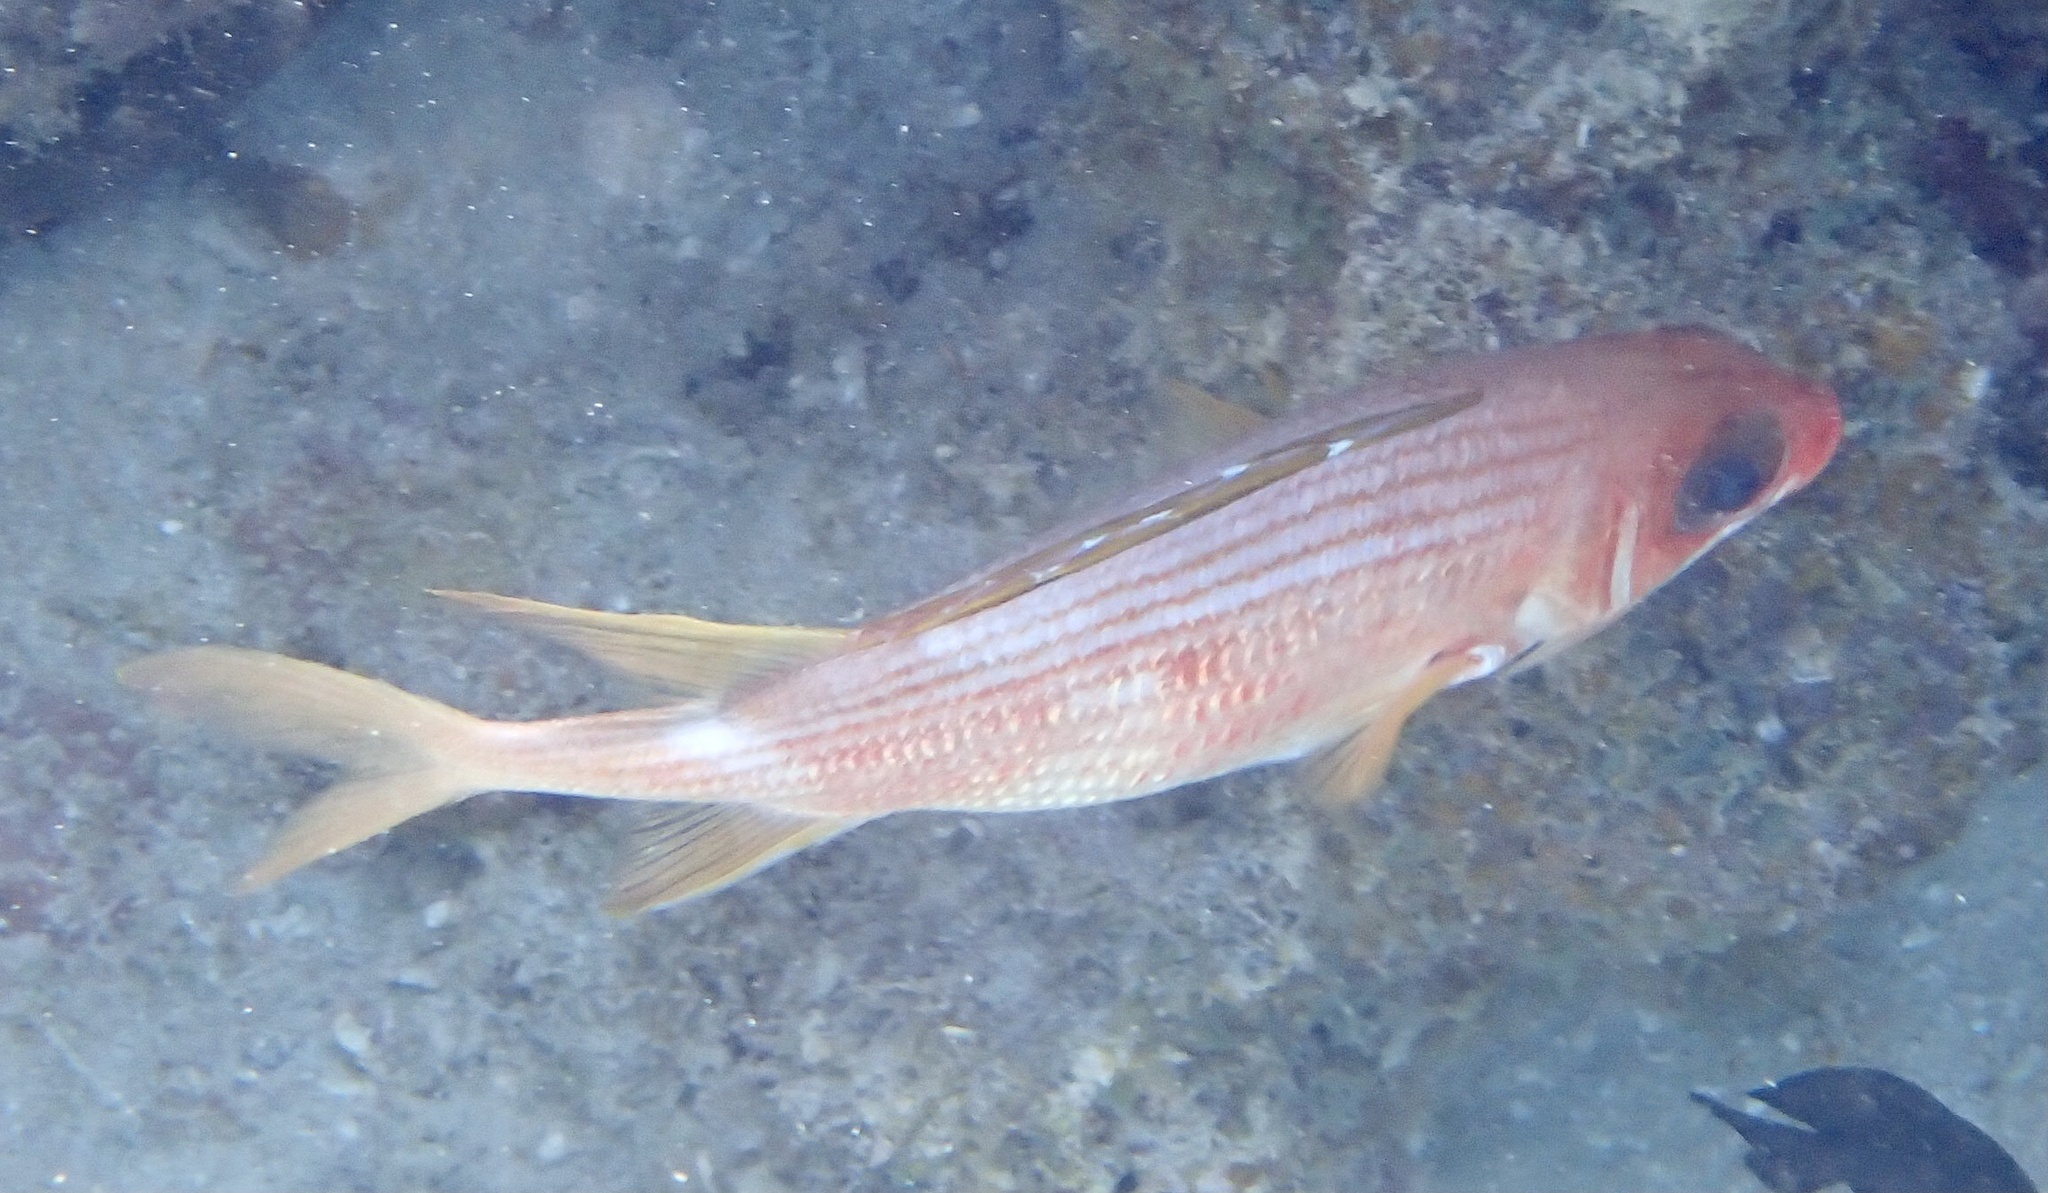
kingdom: Animalia
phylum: Chordata
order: Beryciformes
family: Holocentridae
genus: Holocentrus
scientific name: Holocentrus rufus
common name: Longspine squirrelfish
